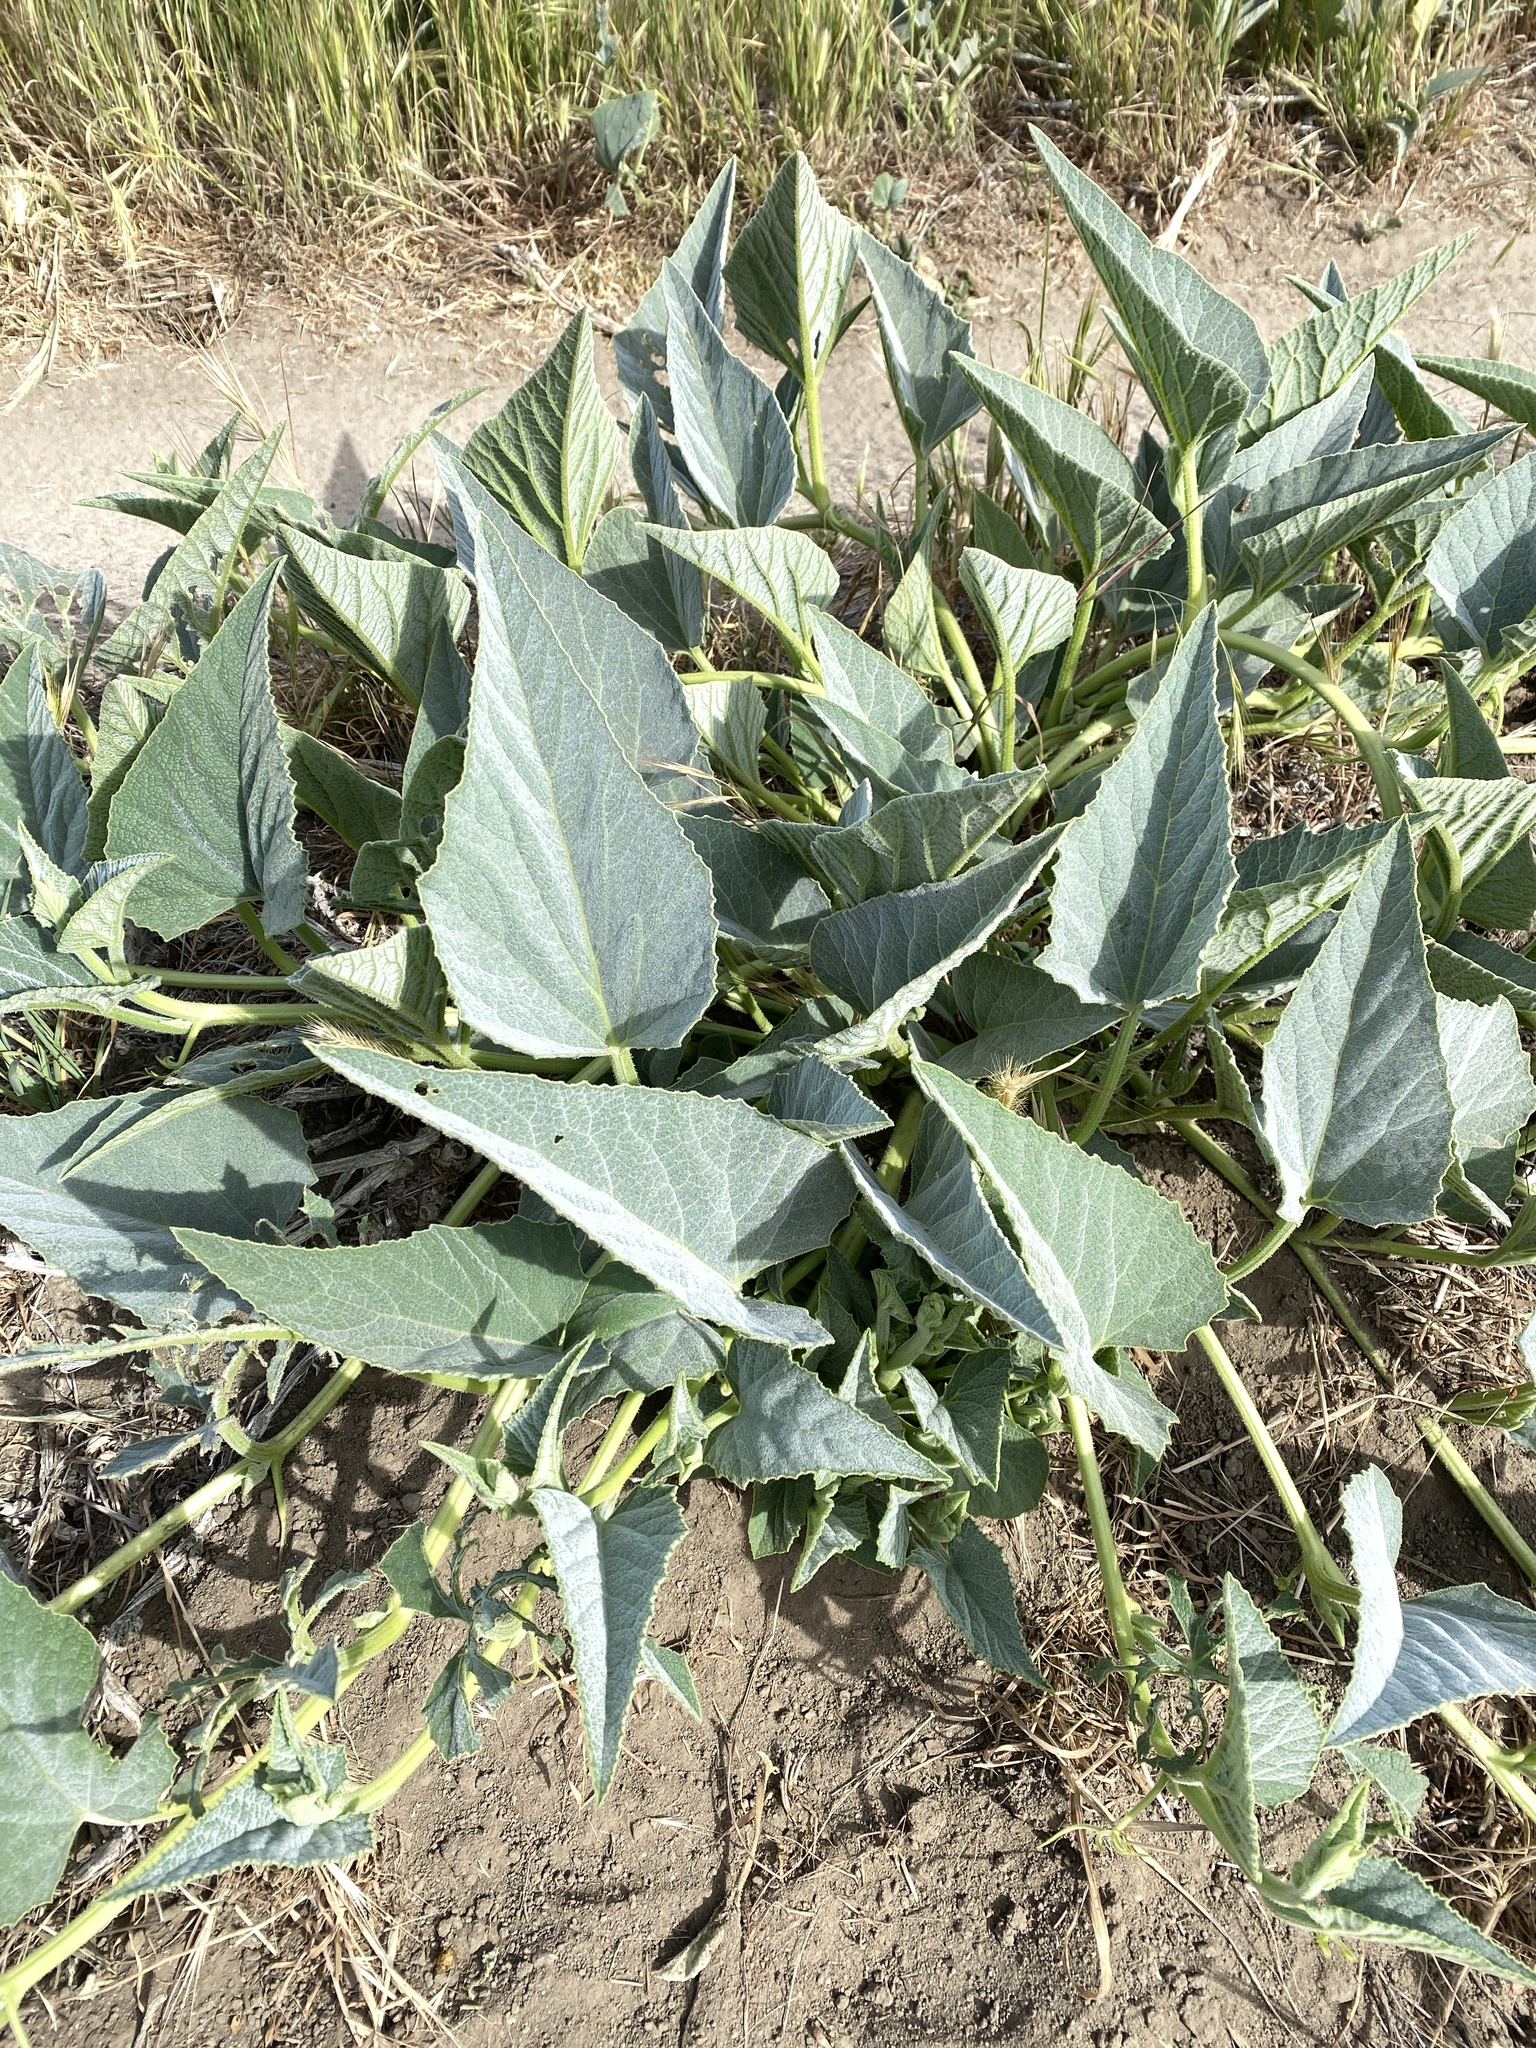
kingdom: Plantae
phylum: Tracheophyta
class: Magnoliopsida
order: Cucurbitales
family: Cucurbitaceae
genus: Cucurbita
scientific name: Cucurbita foetidissima
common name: Buffalo gourd
